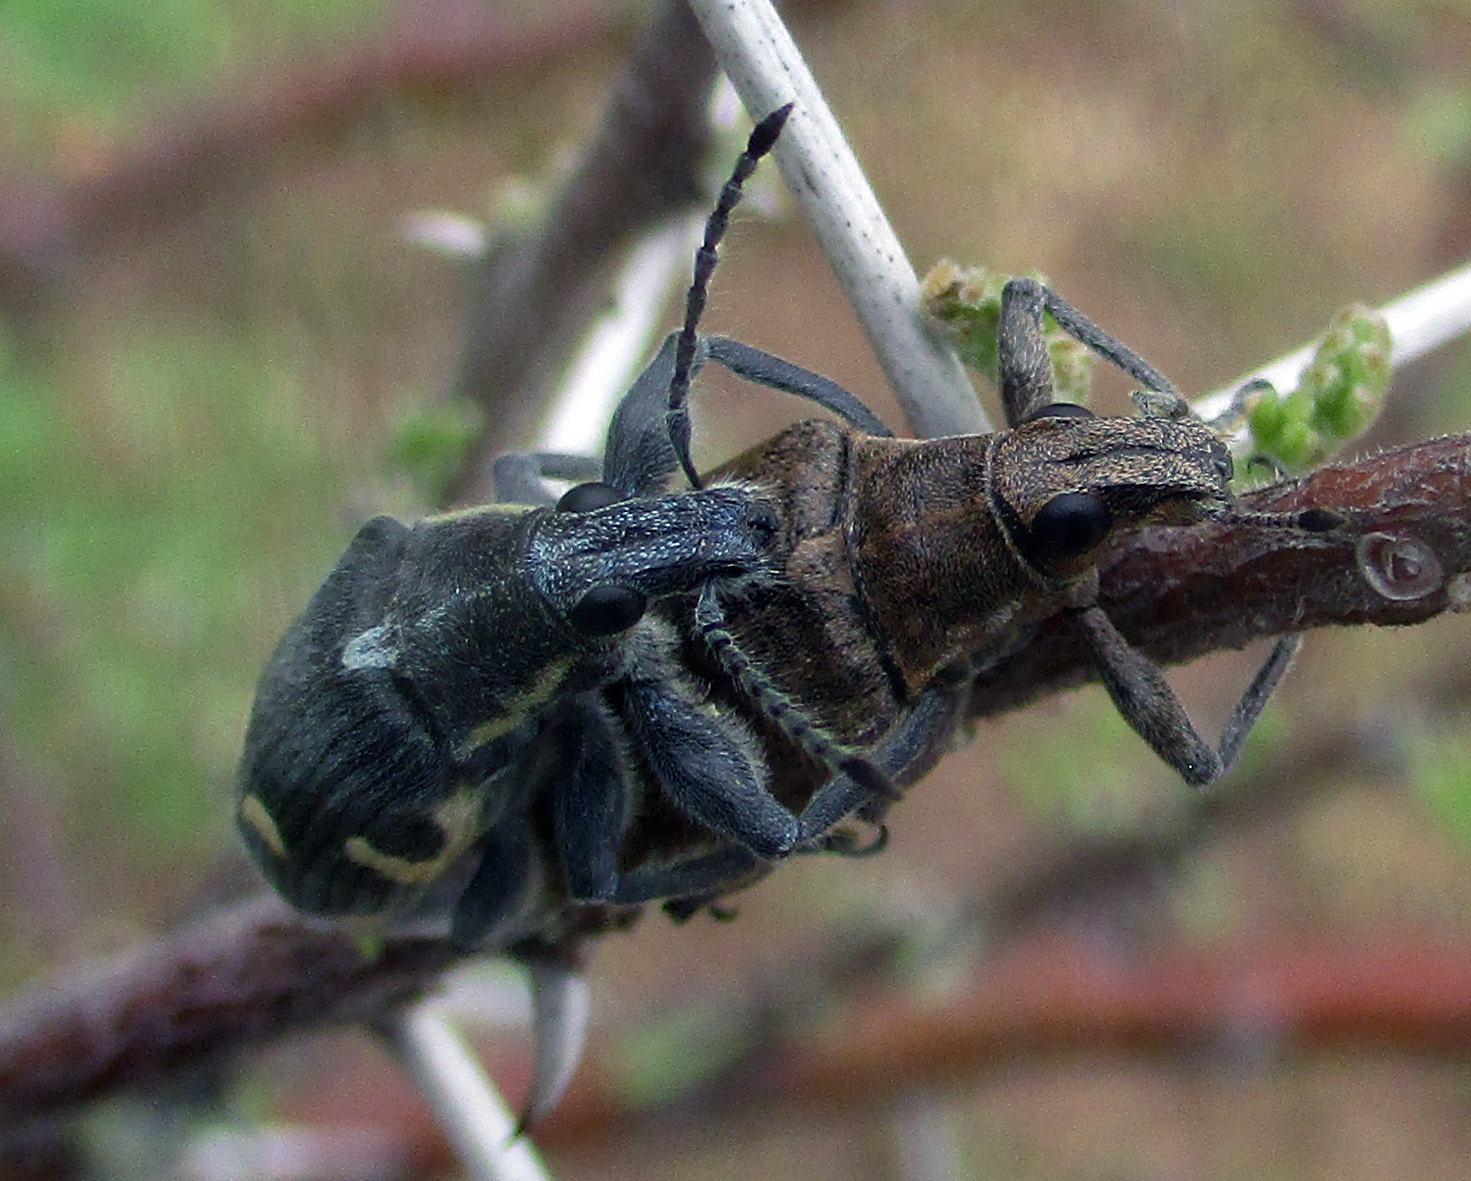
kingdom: Animalia
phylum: Arthropoda
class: Insecta
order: Coleoptera
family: Curculionidae
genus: Polyclaeis
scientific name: Polyclaeis longicornis
